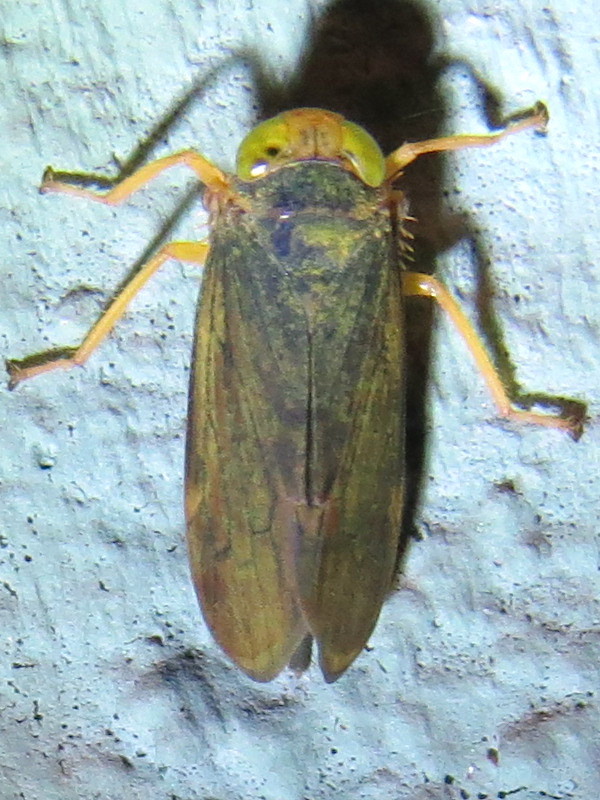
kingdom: Animalia
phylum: Arthropoda
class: Insecta
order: Hemiptera
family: Cicadellidae
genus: Jikradia
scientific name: Jikradia olitoria
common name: Coppery leafhopper
